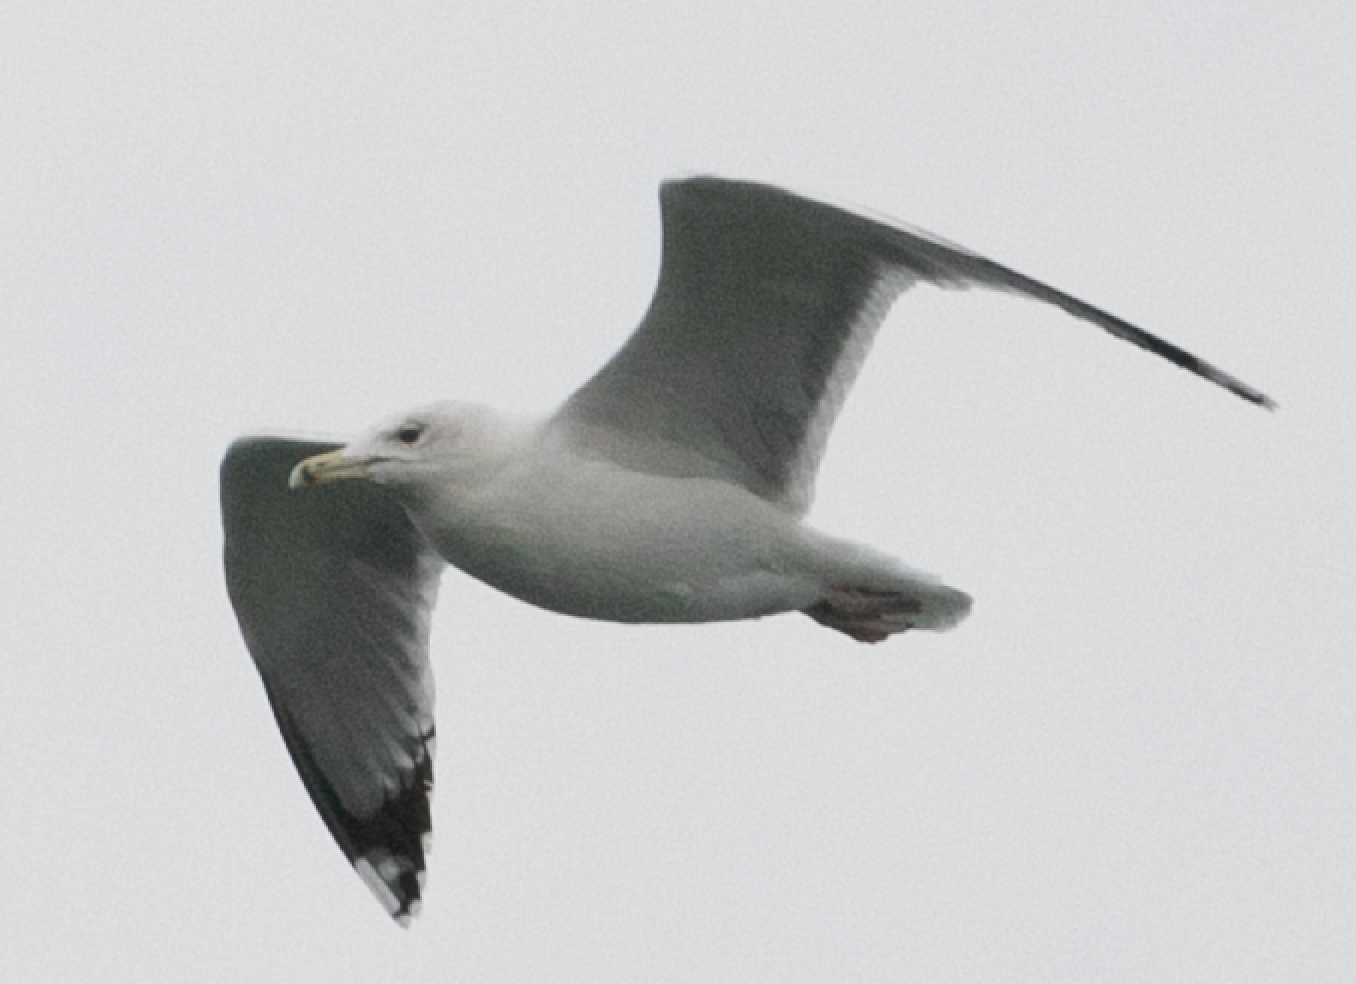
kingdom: Animalia
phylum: Chordata
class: Aves
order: Charadriiformes
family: Laridae
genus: Larus
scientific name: Larus cachinnans
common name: Caspian gull
